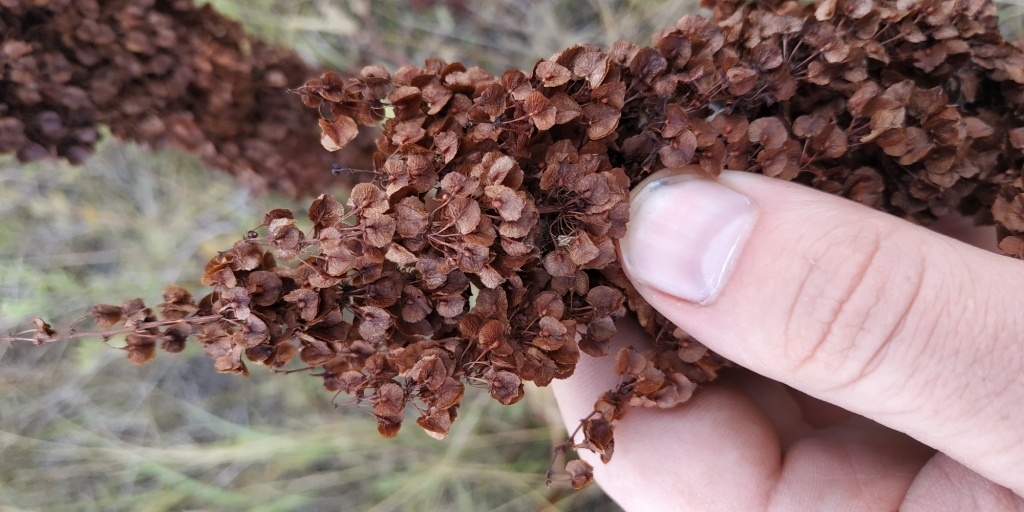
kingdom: Plantae
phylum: Tracheophyta
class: Magnoliopsida
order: Caryophyllales
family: Polygonaceae
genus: Rumex
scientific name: Rumex confertus
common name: Russian dock
